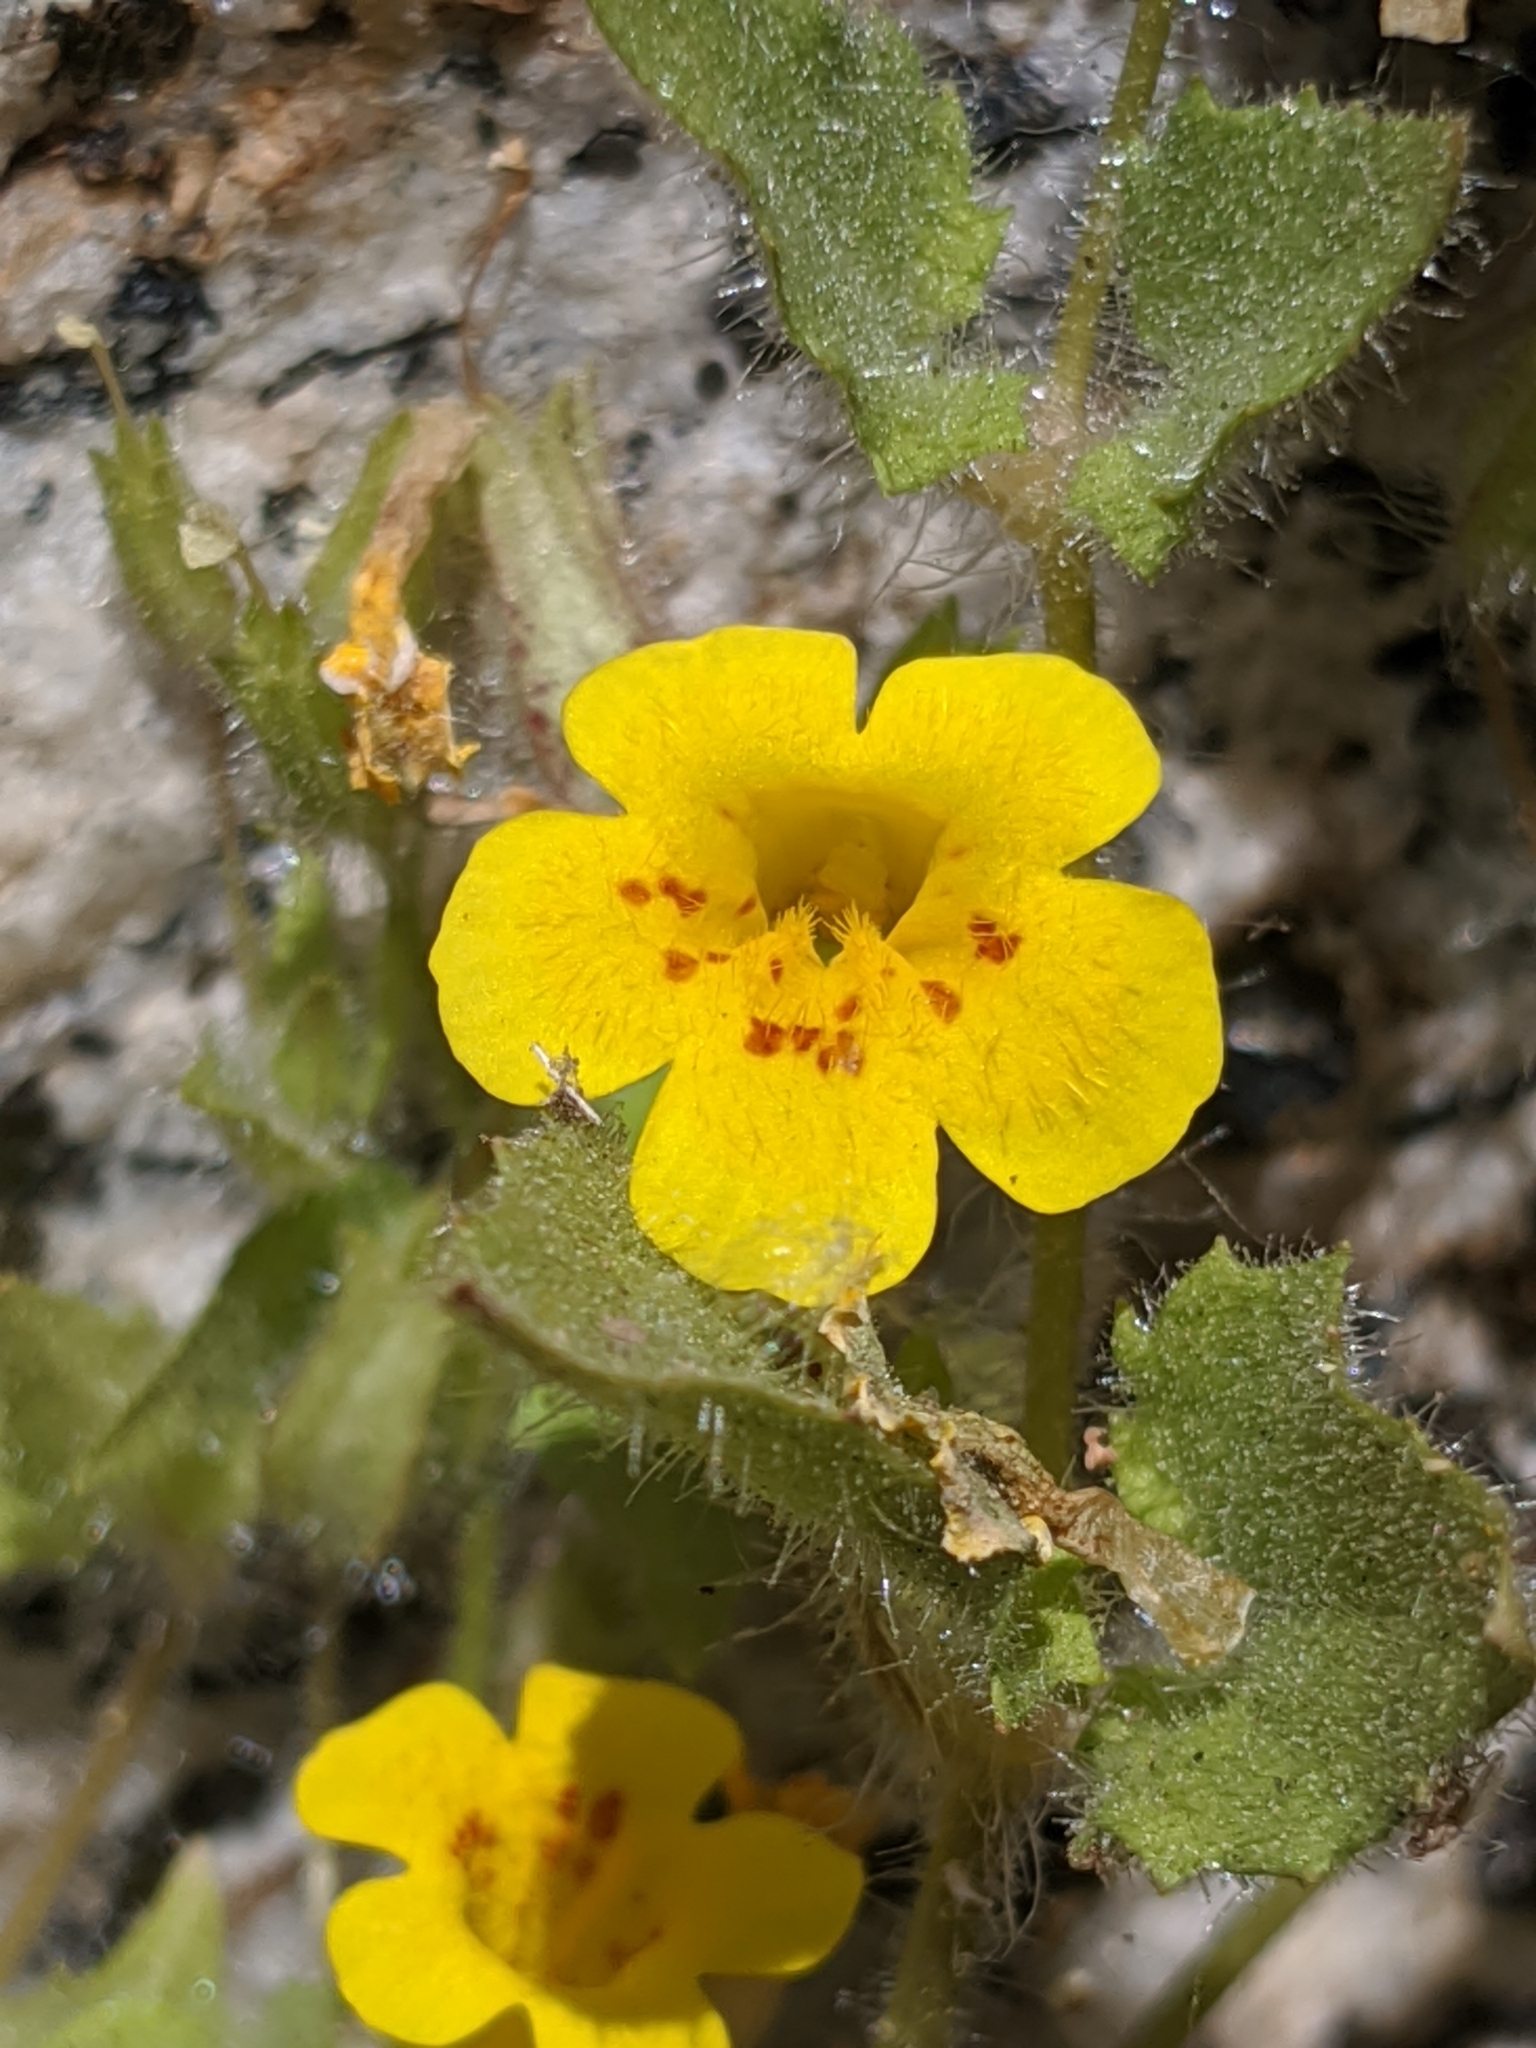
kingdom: Plantae
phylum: Tracheophyta
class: Magnoliopsida
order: Lamiales
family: Phrymaceae
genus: Erythranthe
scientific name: Erythranthe geniculata
